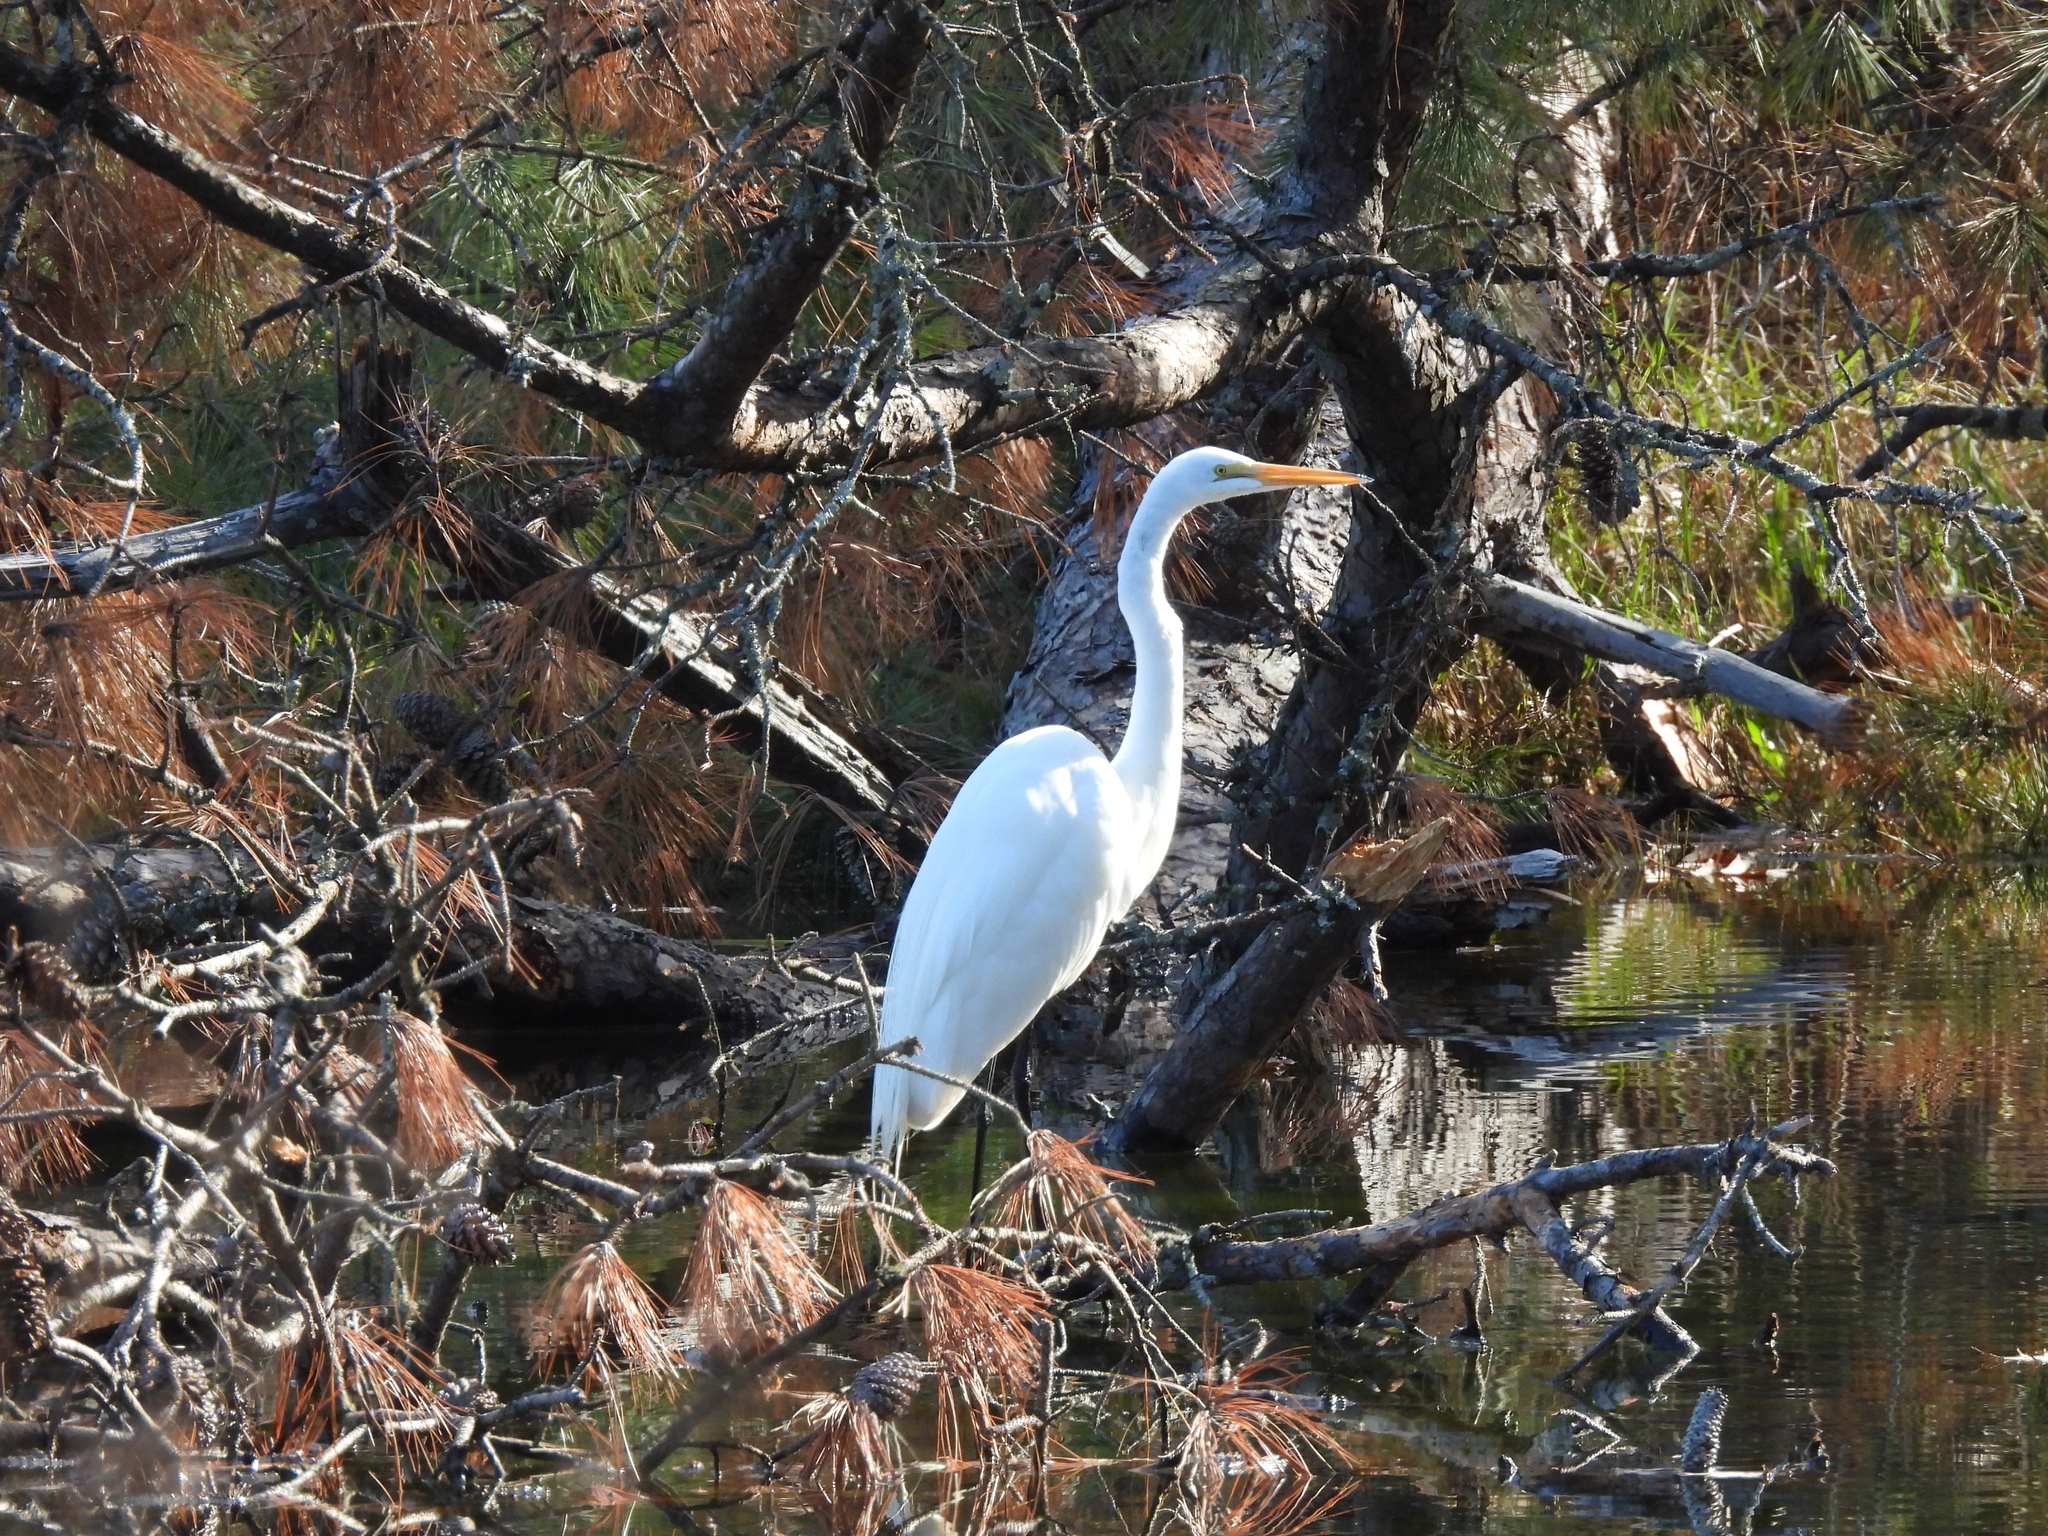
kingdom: Animalia
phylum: Chordata
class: Aves
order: Pelecaniformes
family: Ardeidae
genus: Ardea
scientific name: Ardea alba
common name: Great egret
